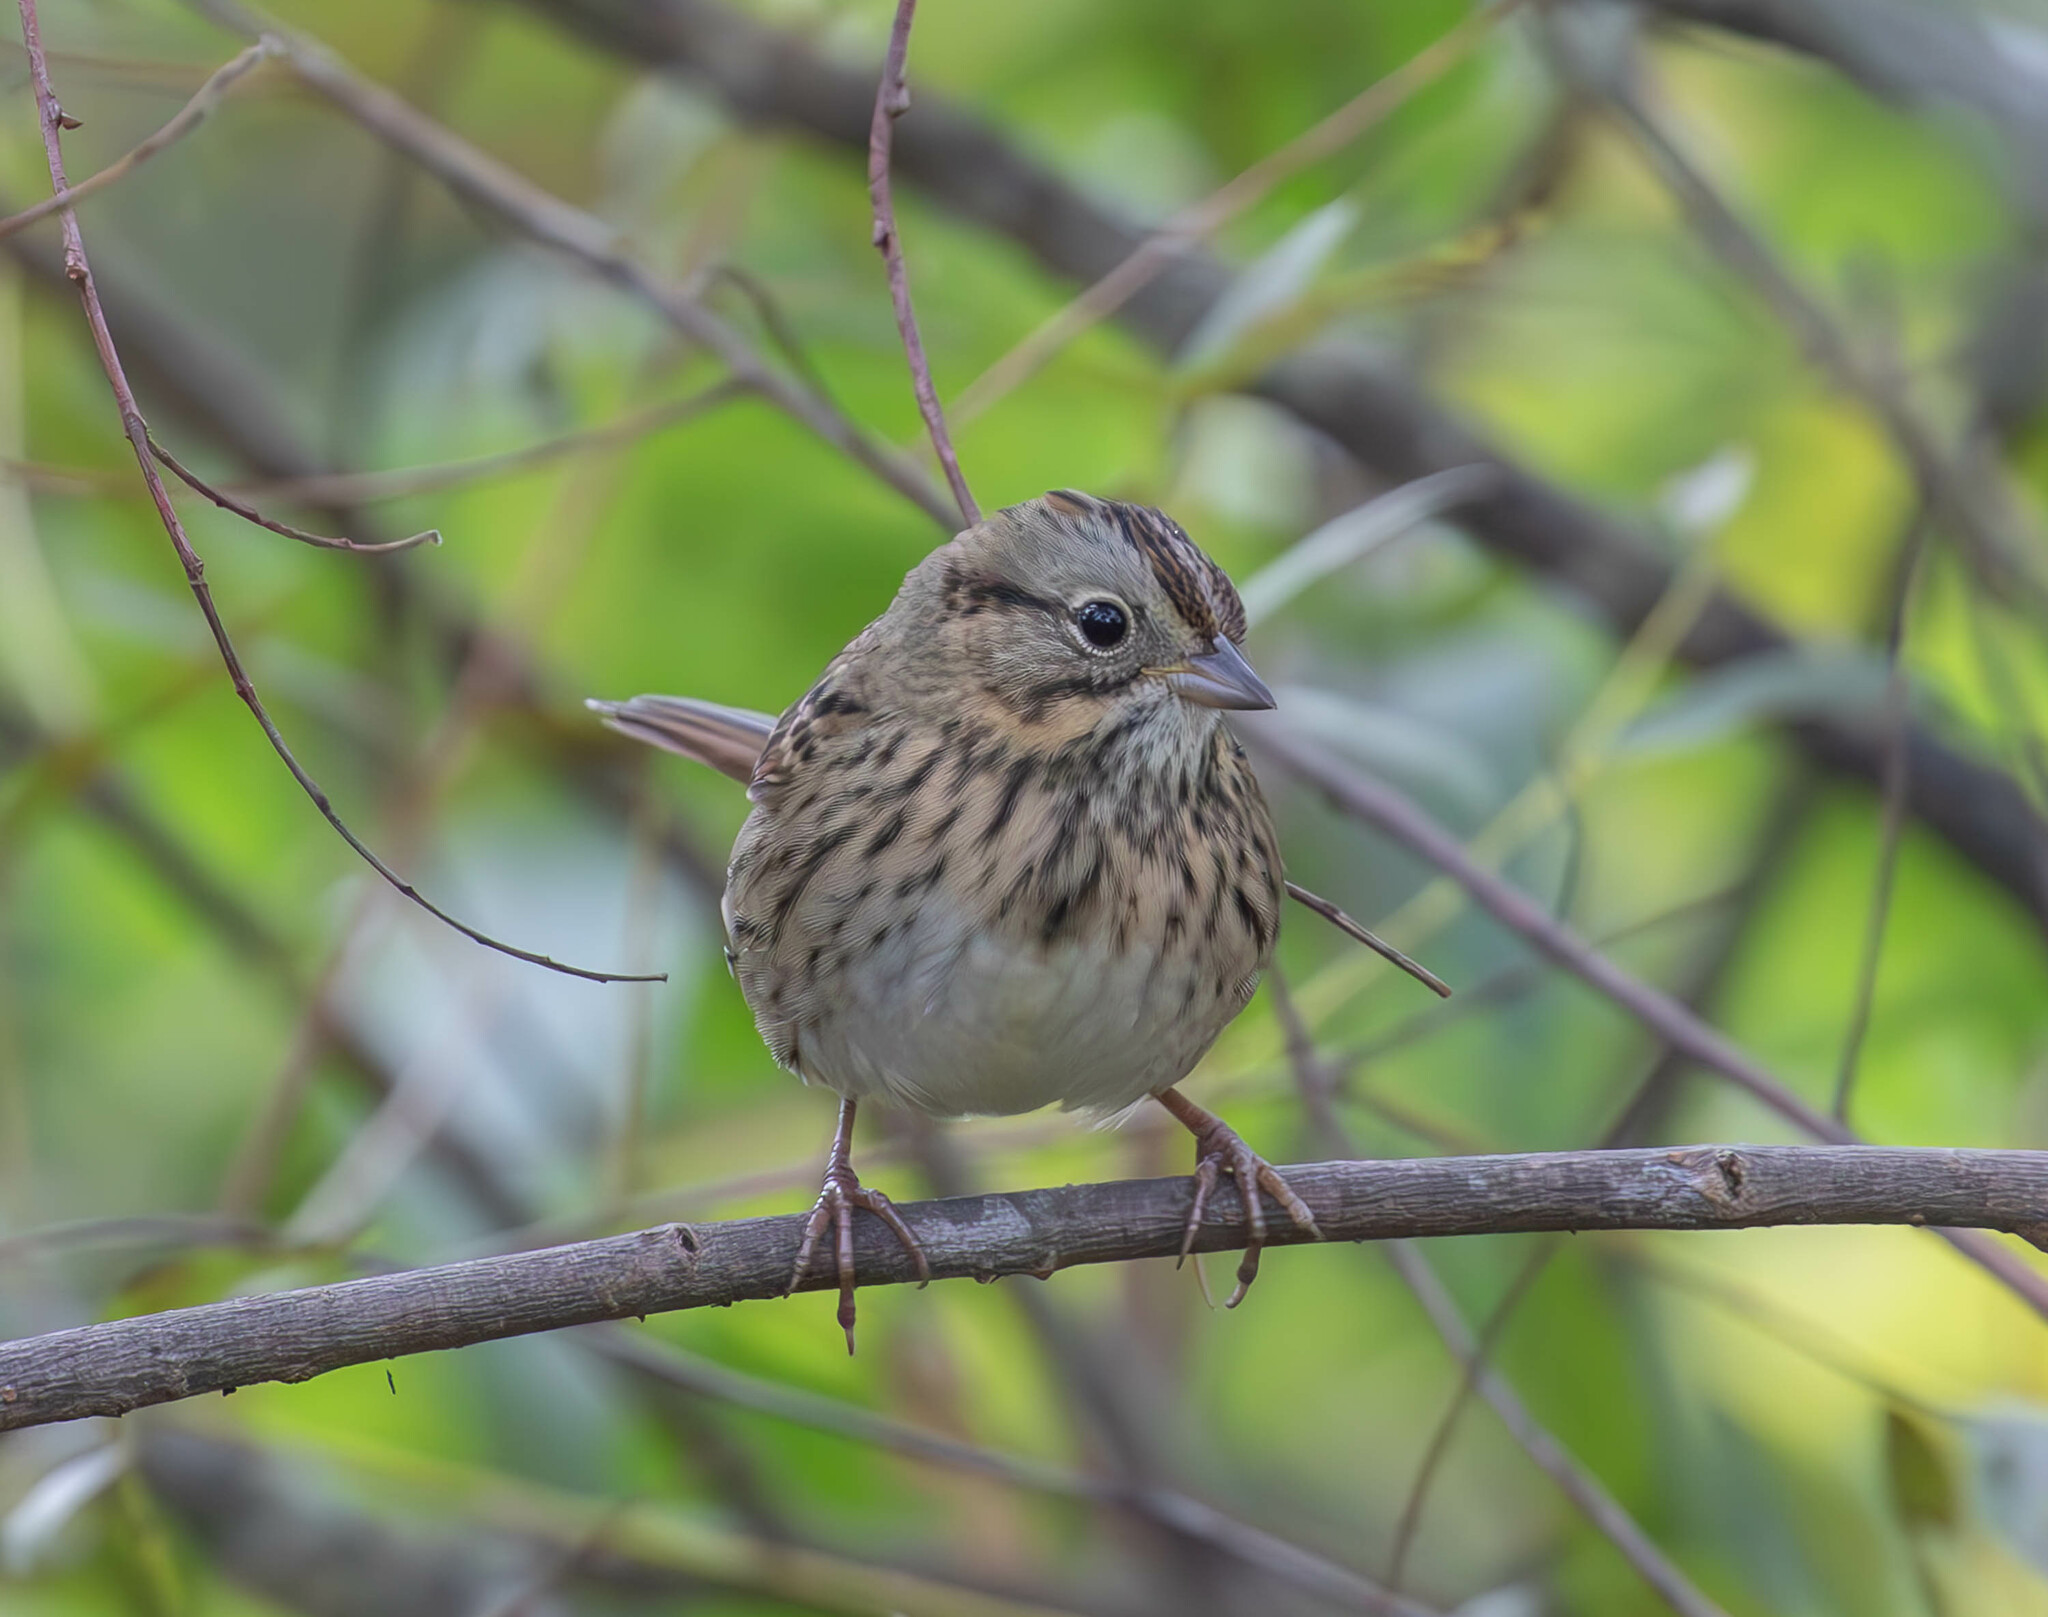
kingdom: Animalia
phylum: Chordata
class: Aves
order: Passeriformes
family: Passerellidae
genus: Melospiza
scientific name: Melospiza lincolnii
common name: Lincoln's sparrow
